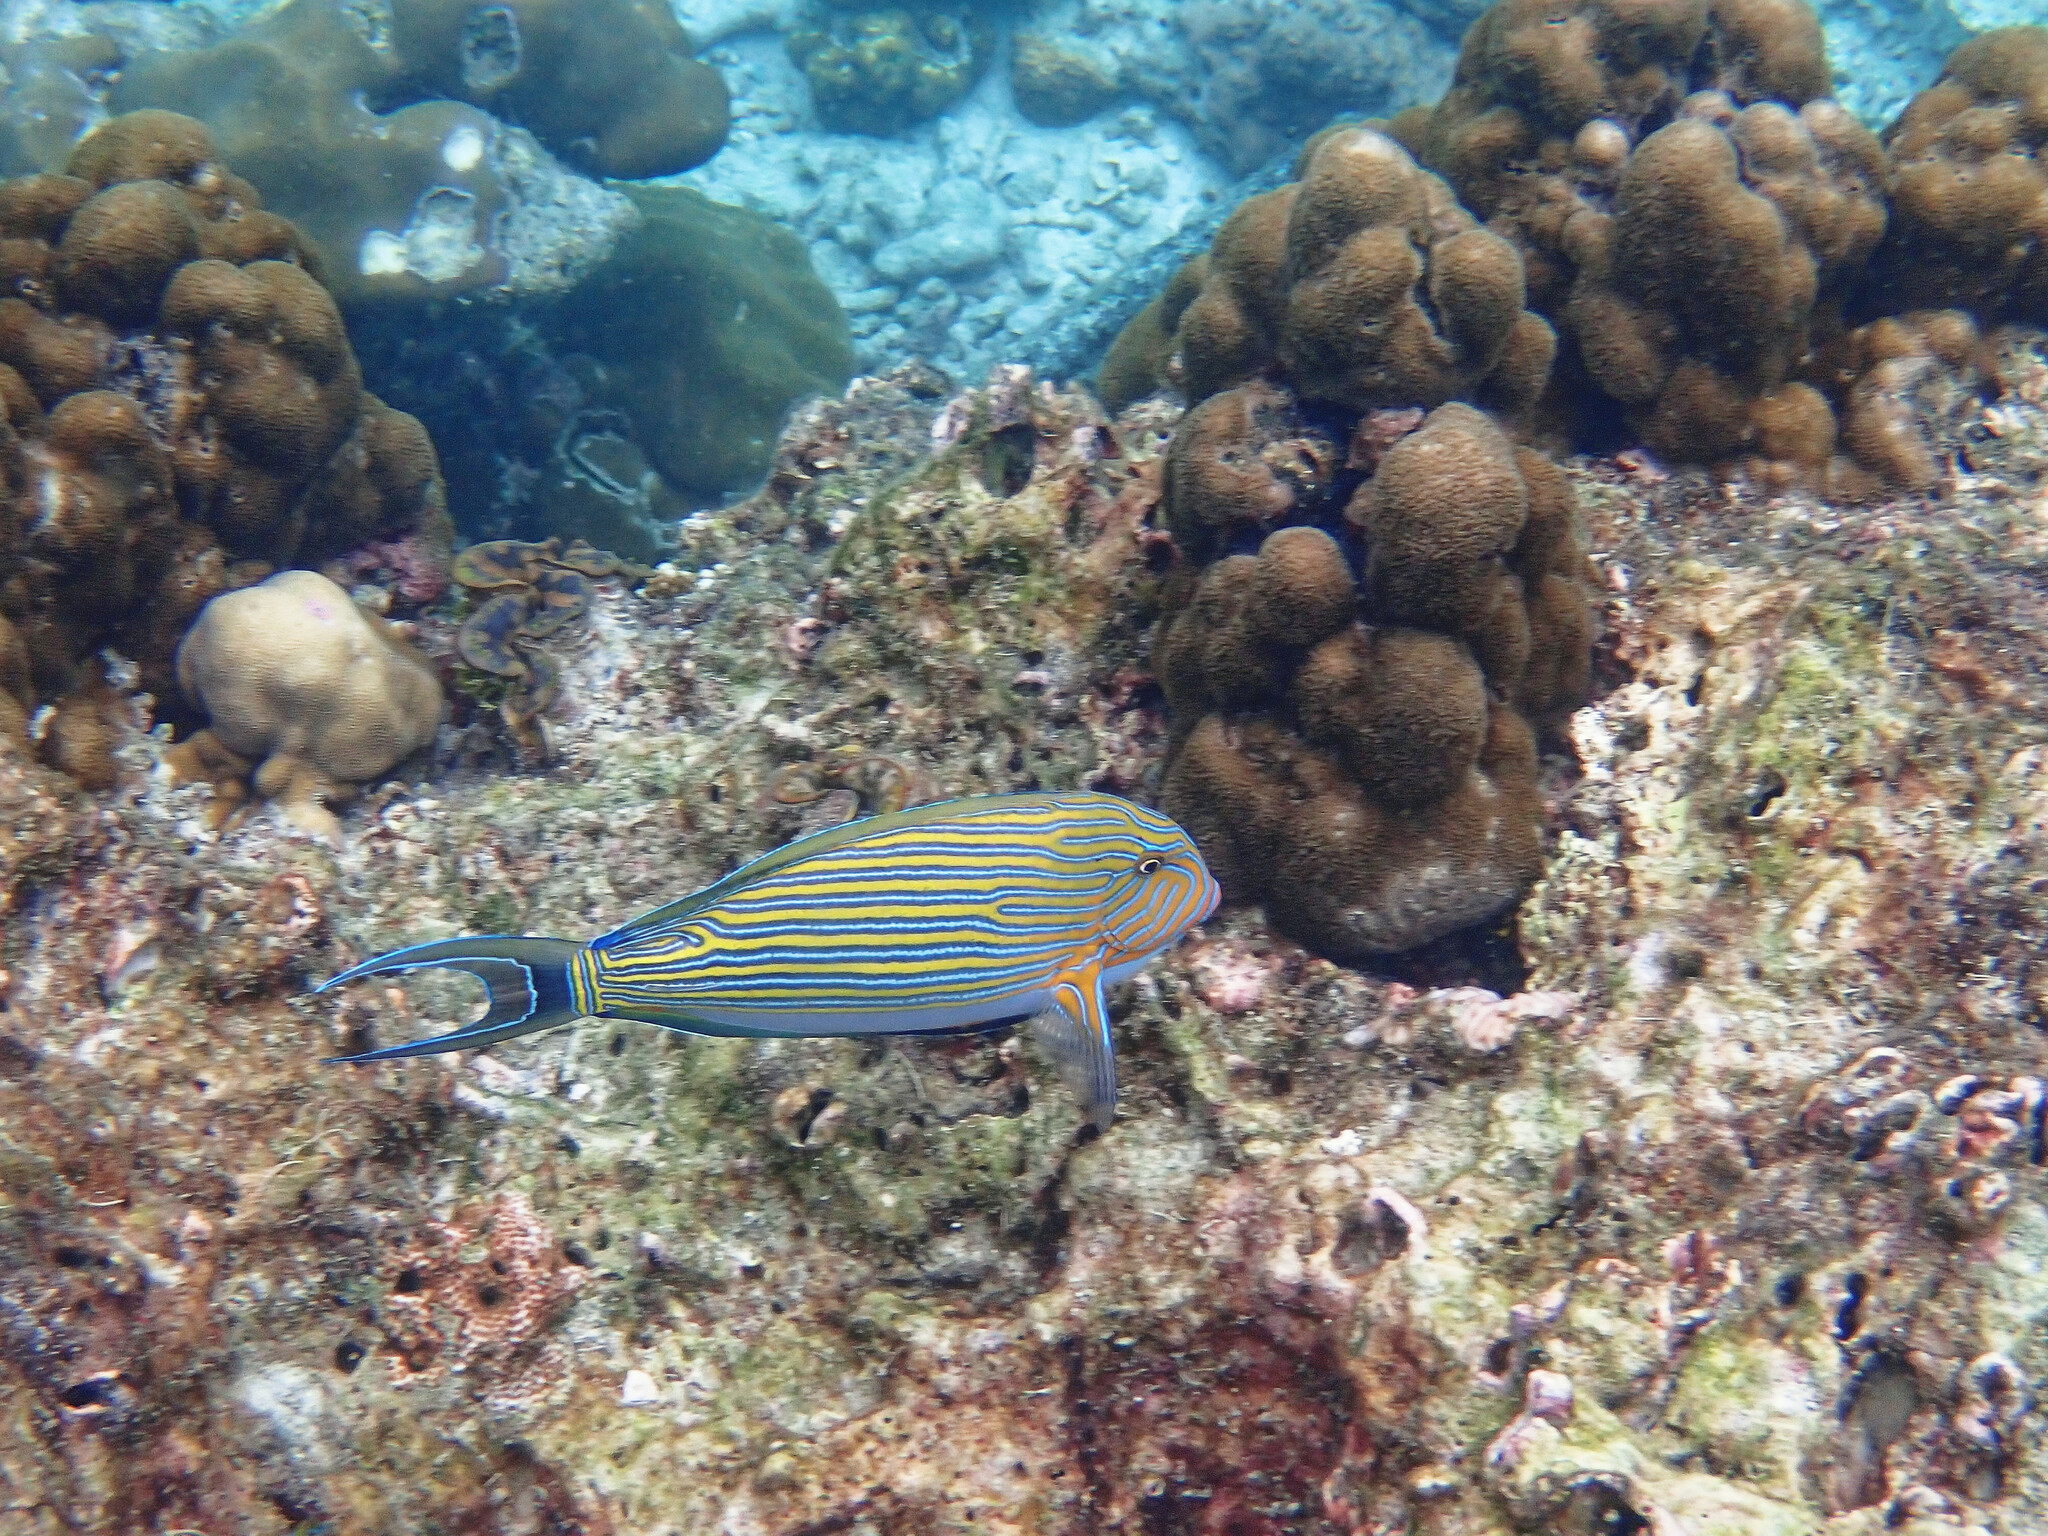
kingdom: Animalia
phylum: Chordata
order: Perciformes
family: Acanthuridae
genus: Acanthurus
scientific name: Acanthurus lineatus
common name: Striped surgeonfish
